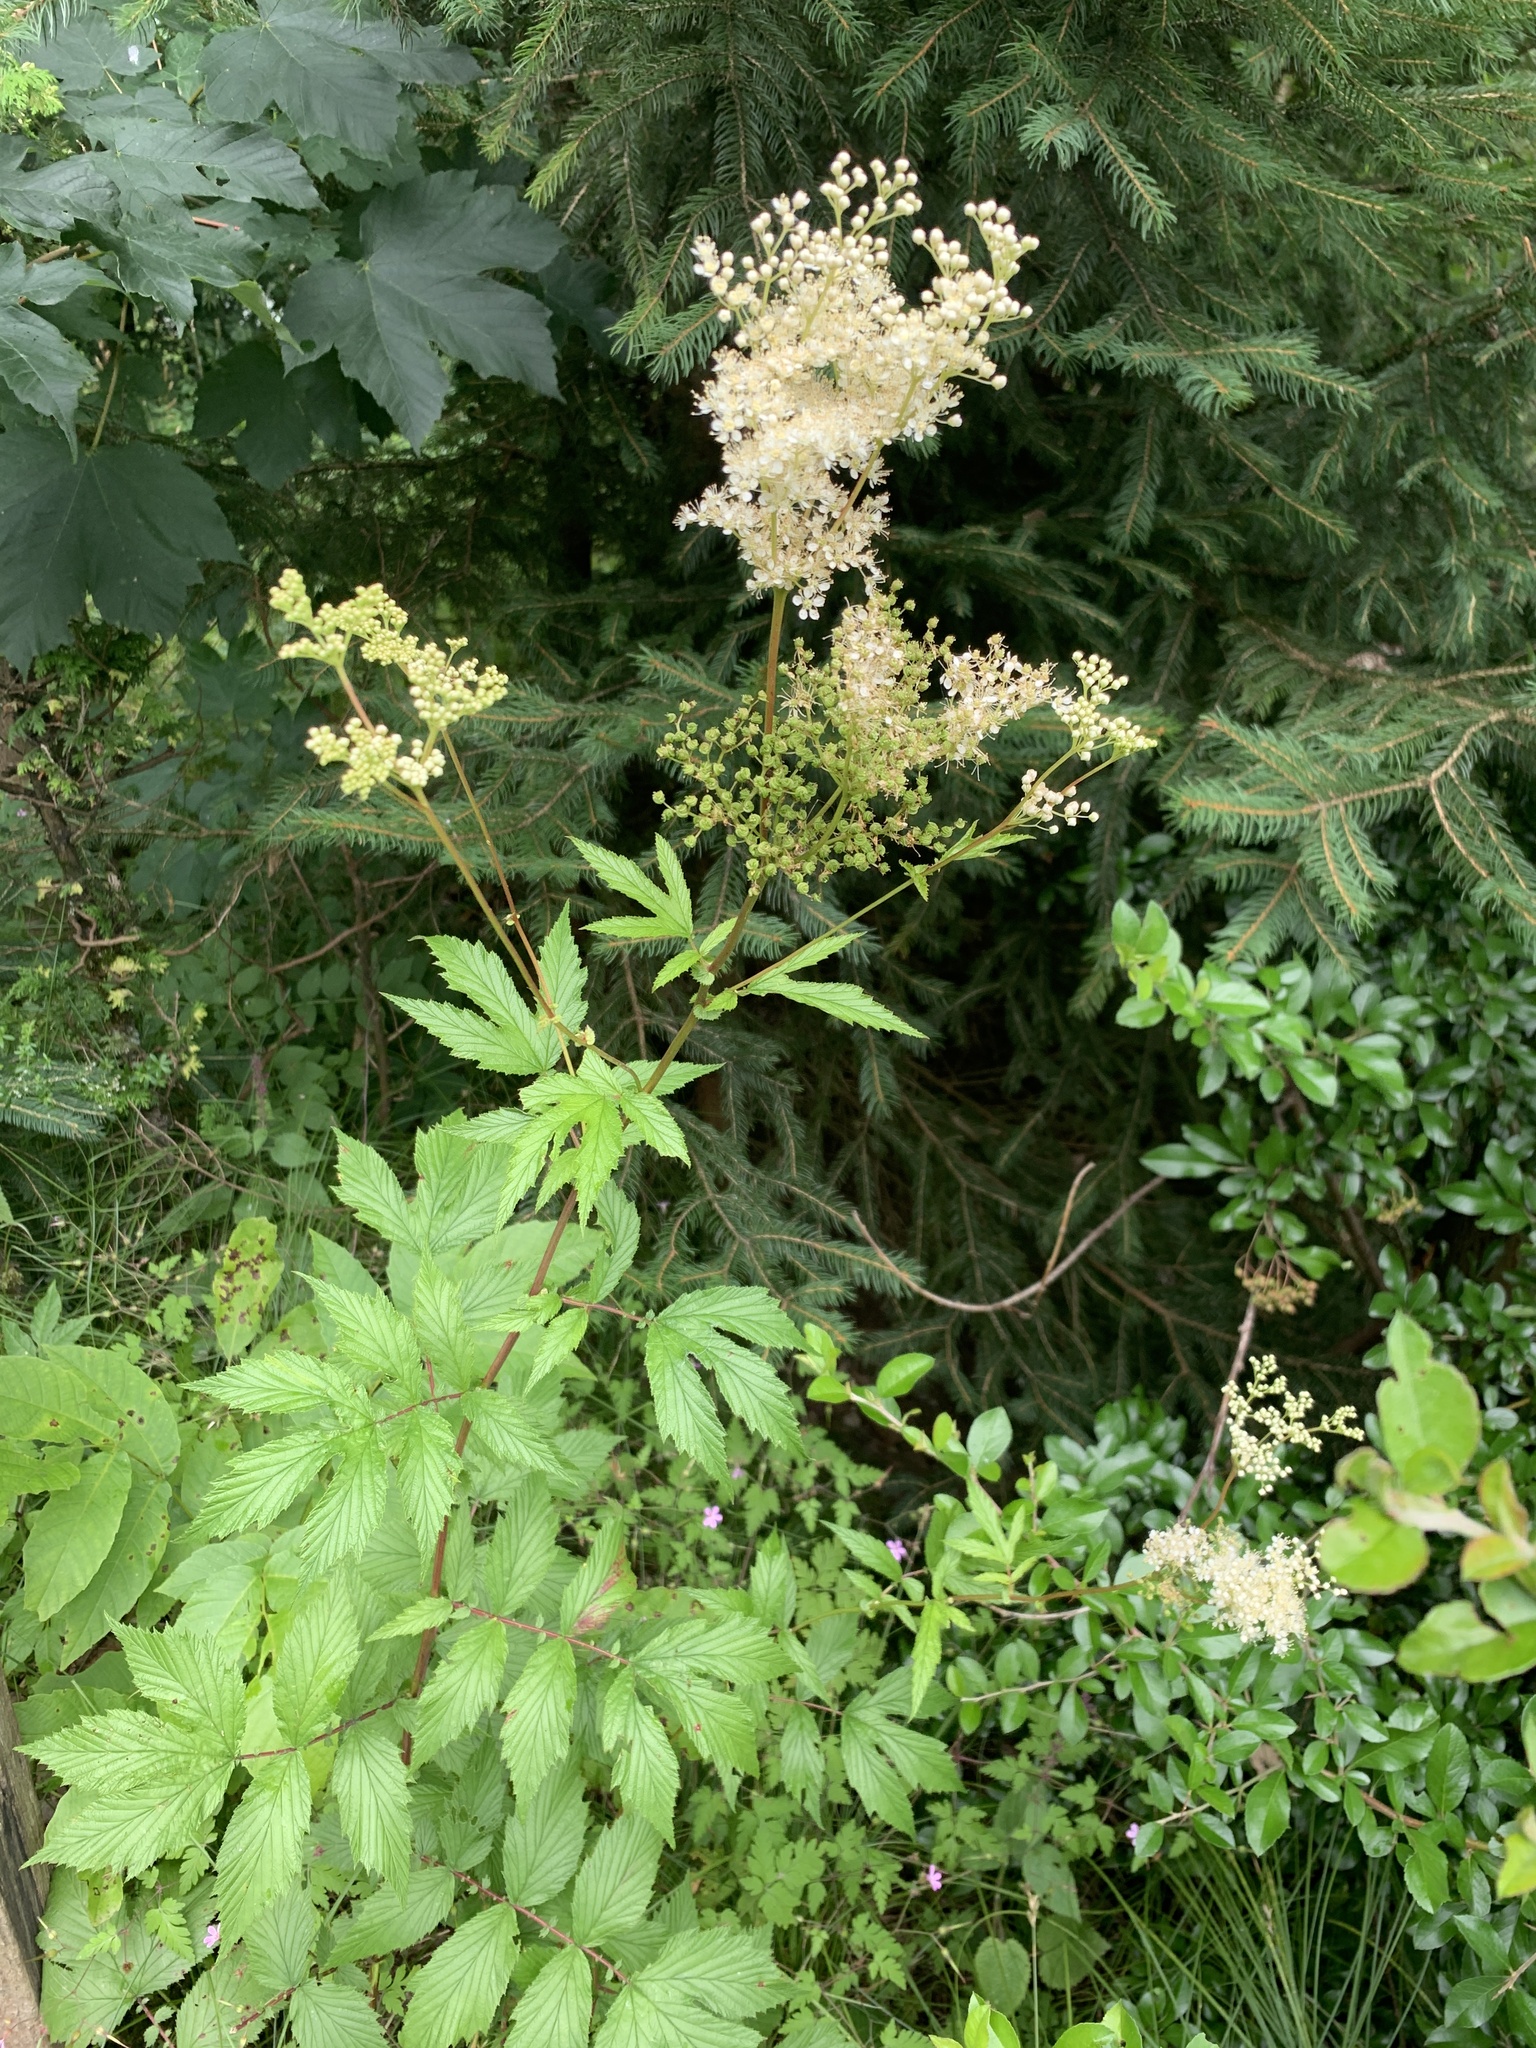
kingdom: Plantae
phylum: Tracheophyta
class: Magnoliopsida
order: Rosales
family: Rosaceae
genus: Filipendula
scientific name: Filipendula ulmaria
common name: Meadowsweet
